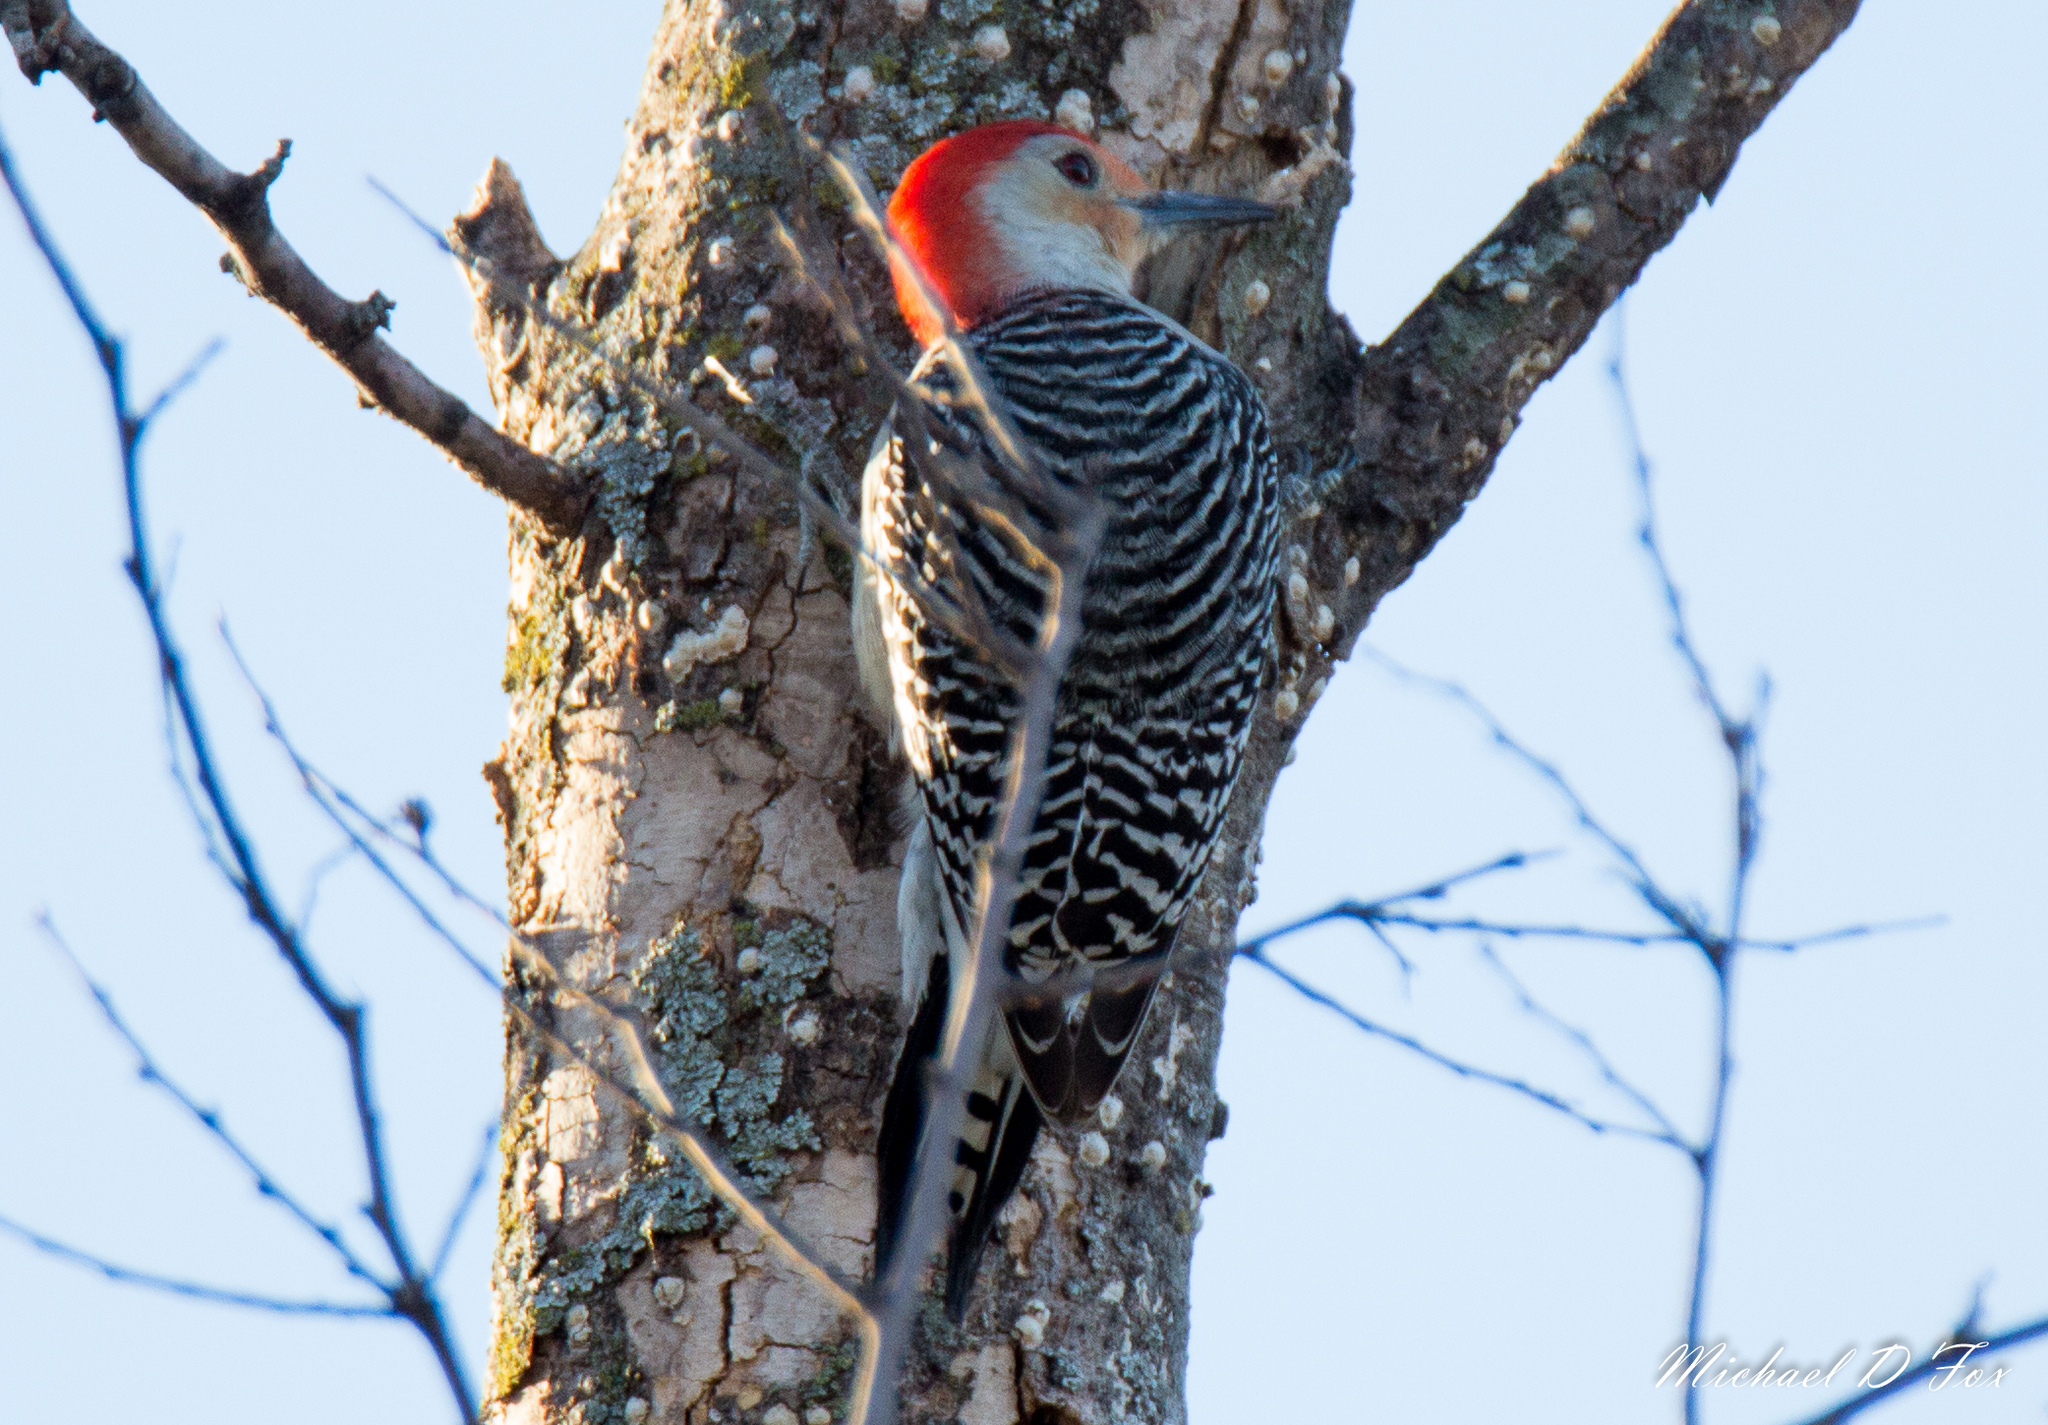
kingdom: Animalia
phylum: Chordata
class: Aves
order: Piciformes
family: Picidae
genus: Melanerpes
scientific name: Melanerpes carolinus
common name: Red-bellied woodpecker
